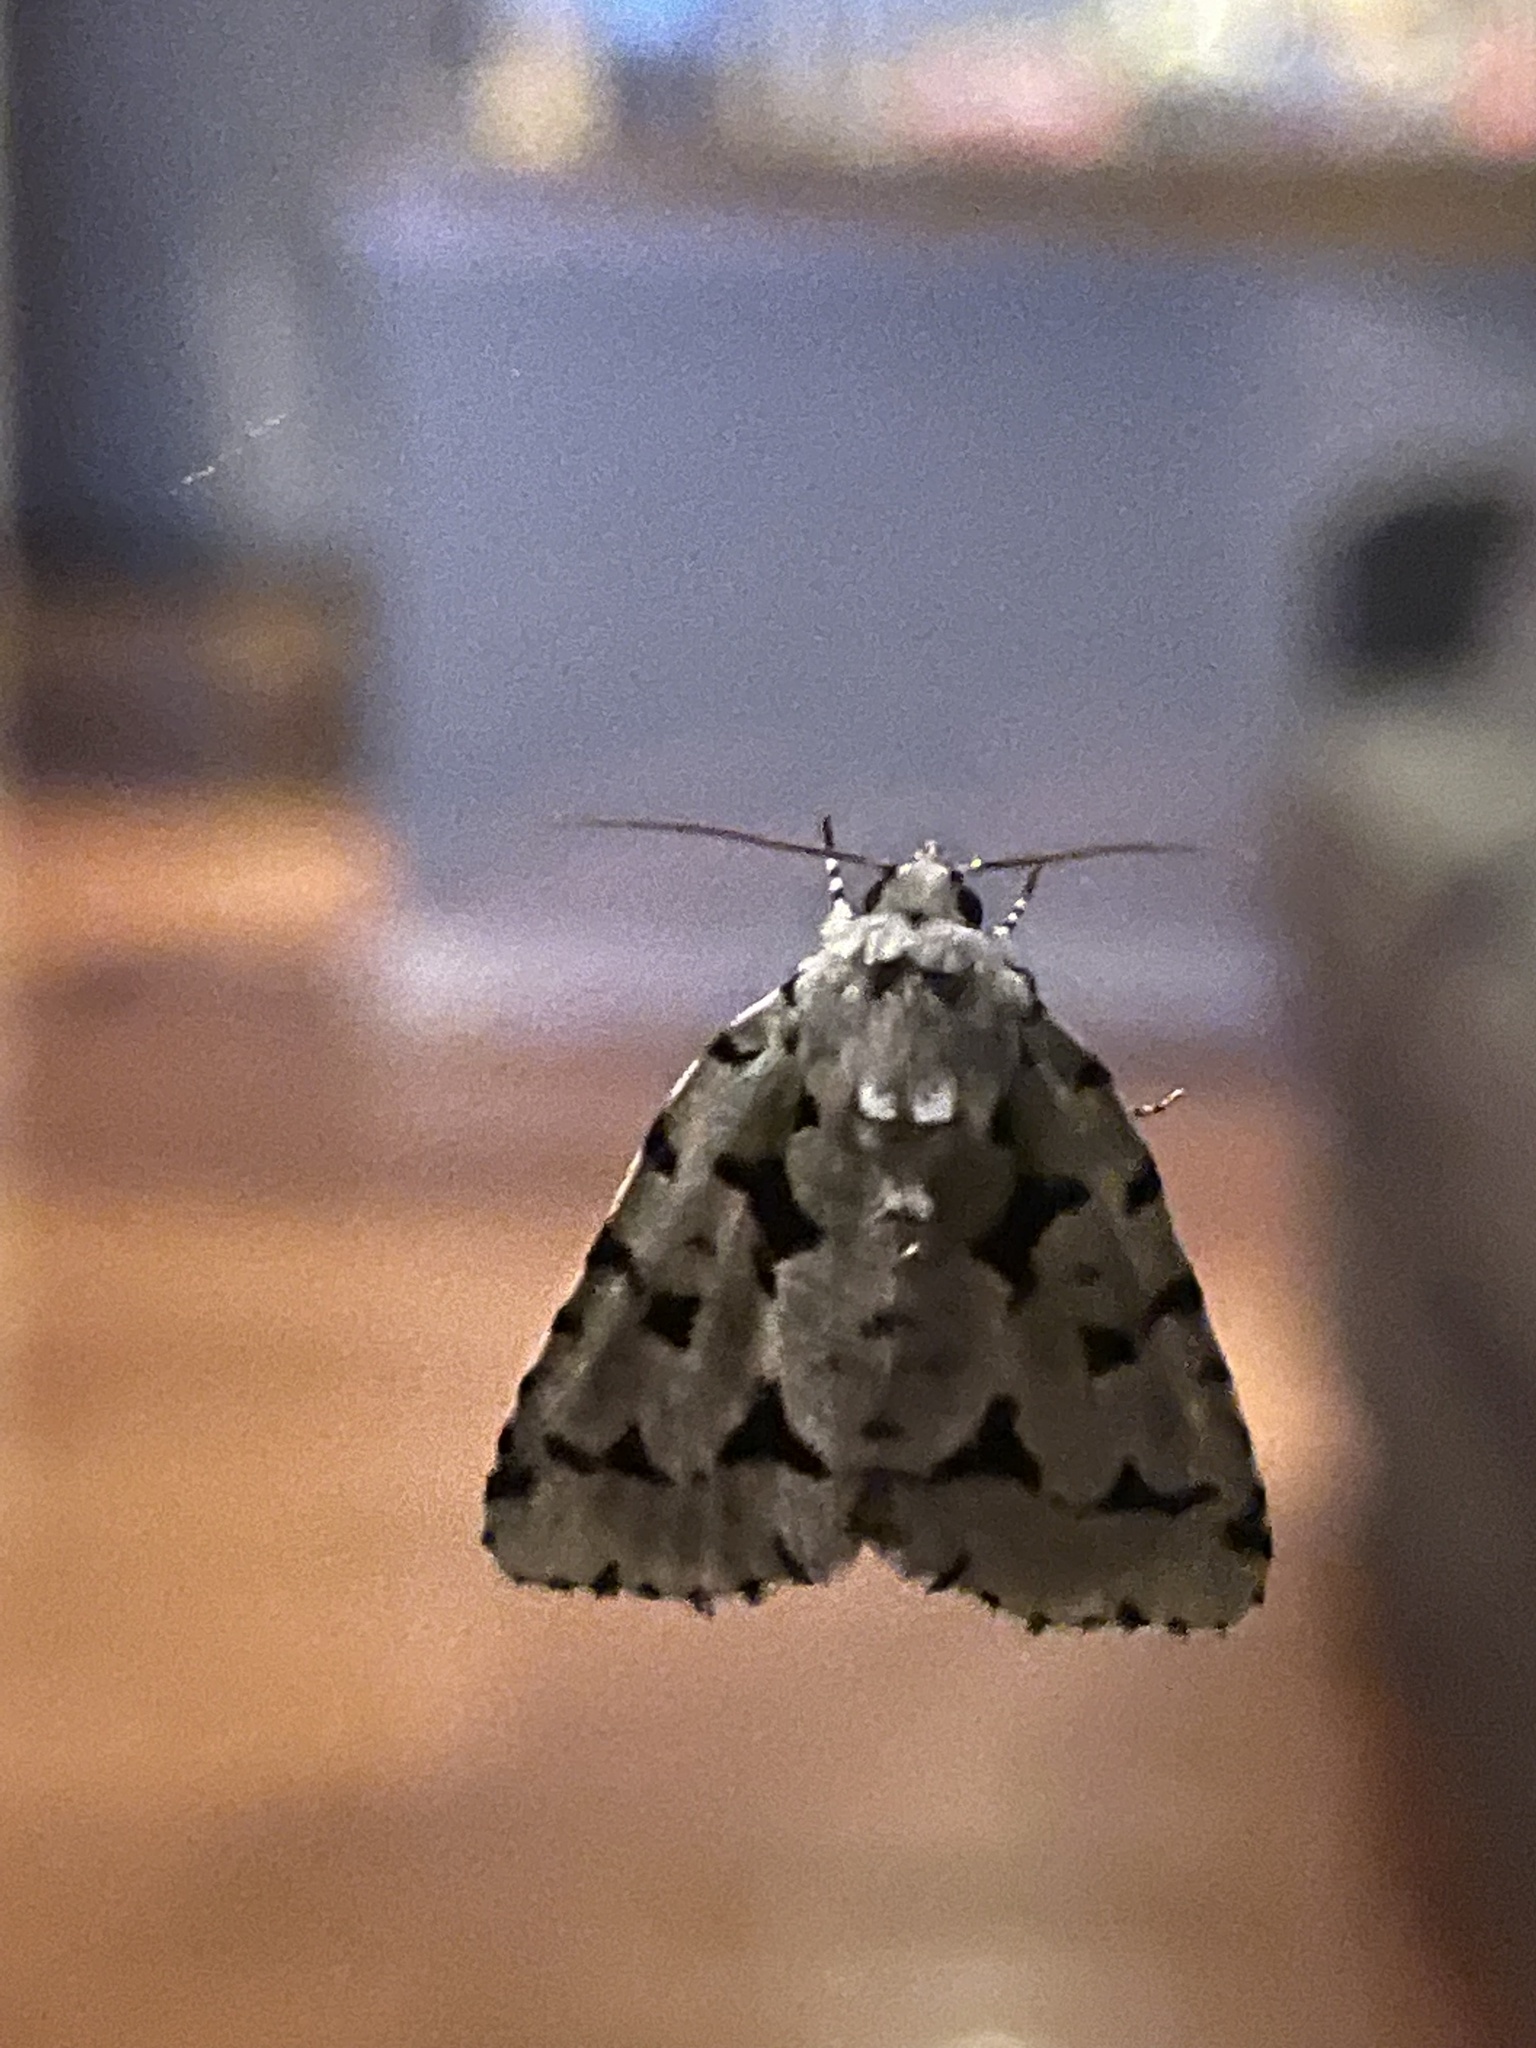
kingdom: Animalia
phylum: Arthropoda
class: Insecta
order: Lepidoptera
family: Noctuidae
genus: Acronicta
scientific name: Acronicta fallax
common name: Green marvel
